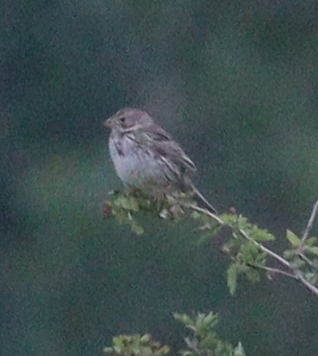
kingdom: Animalia
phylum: Chordata
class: Aves
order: Passeriformes
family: Emberizidae
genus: Emberiza
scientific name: Emberiza calandra
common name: Corn bunting
